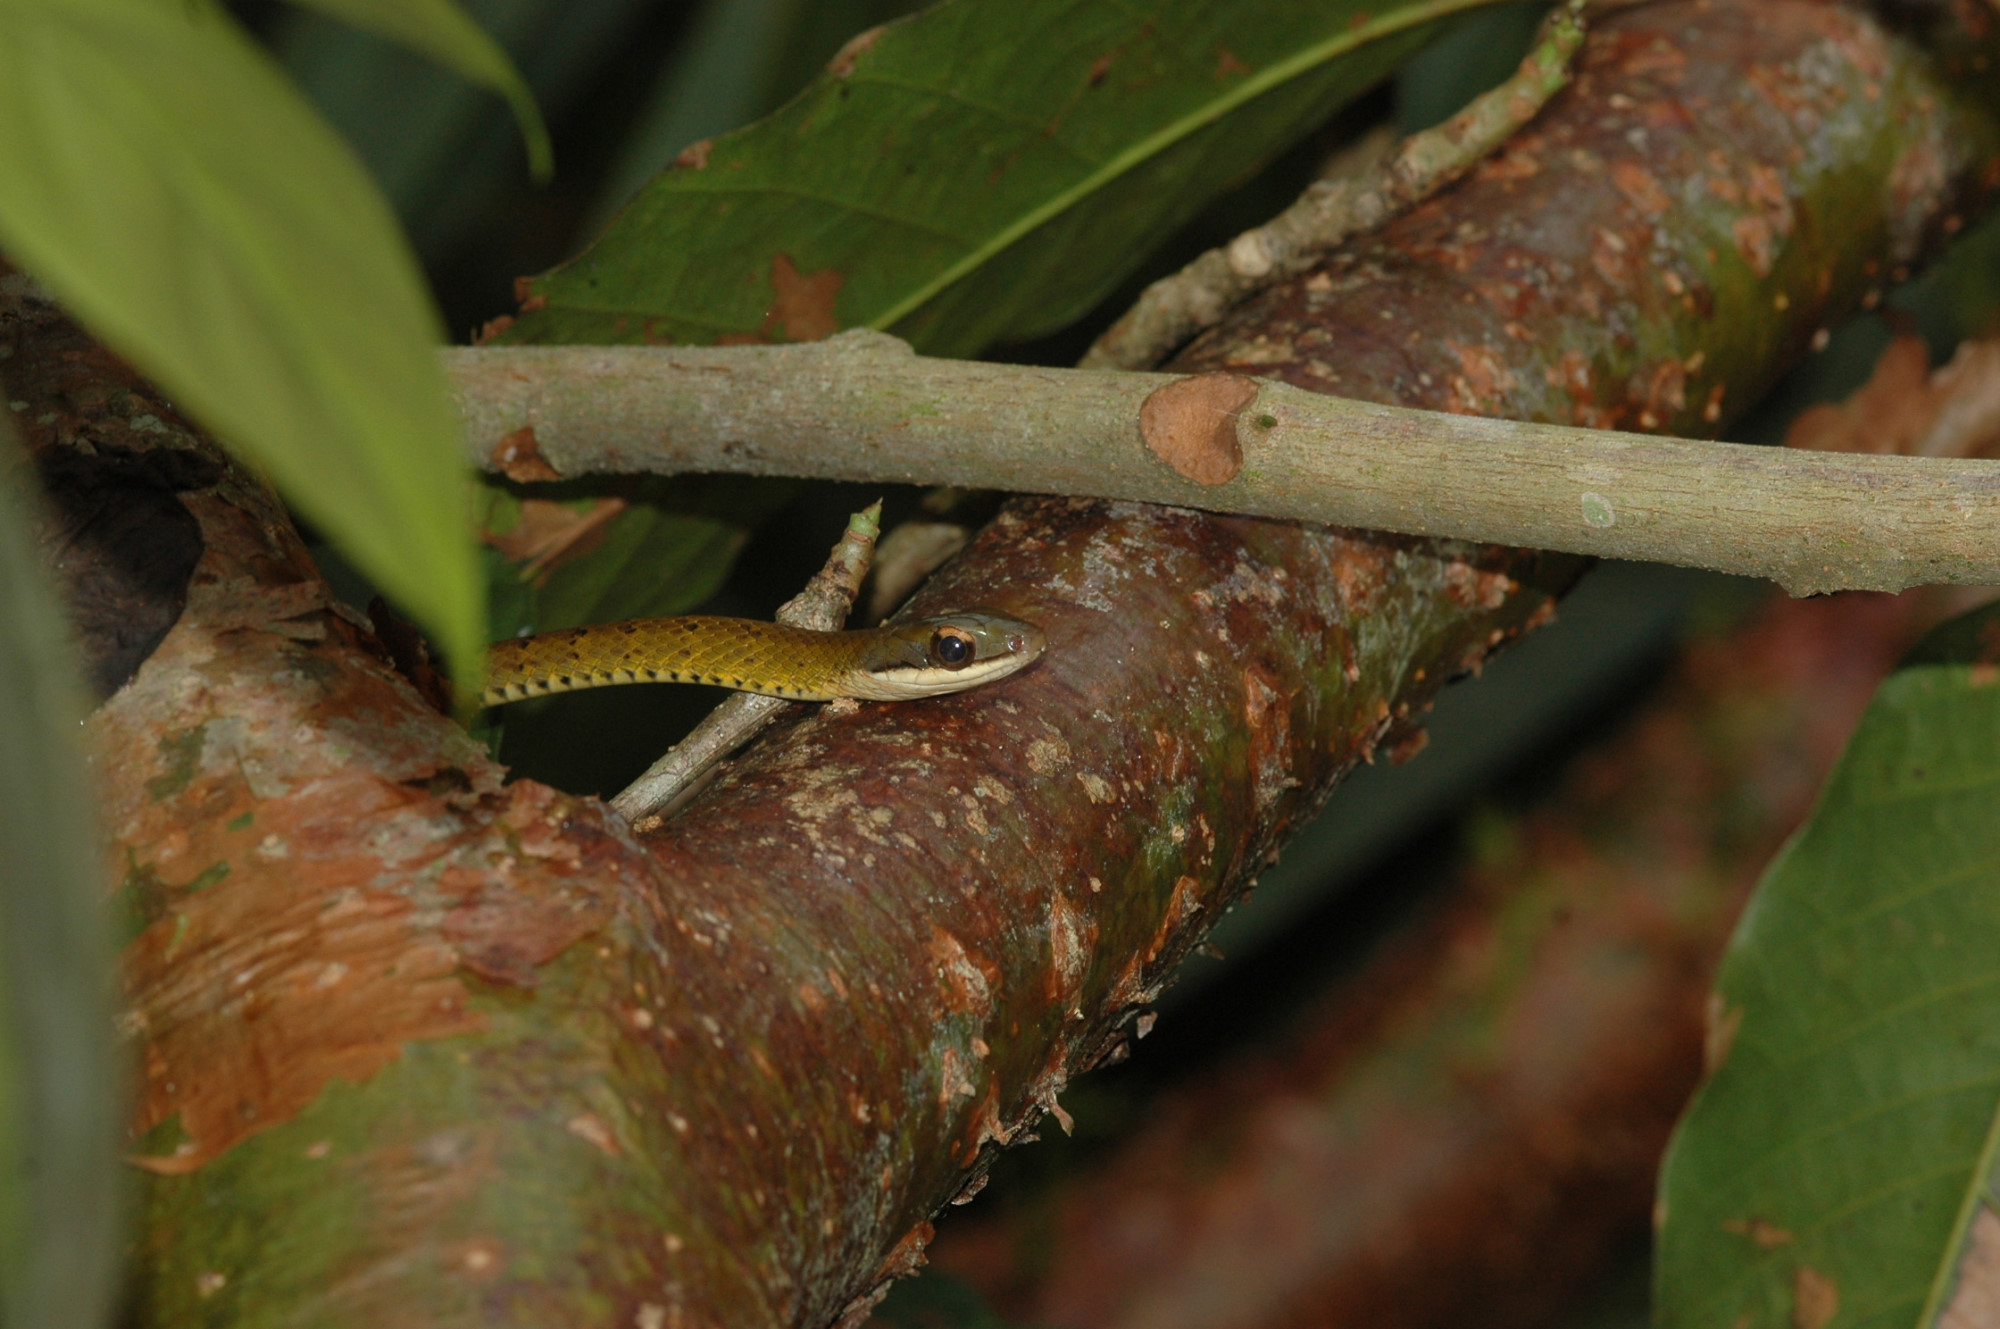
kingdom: Animalia
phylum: Chordata
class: Squamata
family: Colubridae
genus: Dendrophidion
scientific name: Dendrophidion apharocybe
